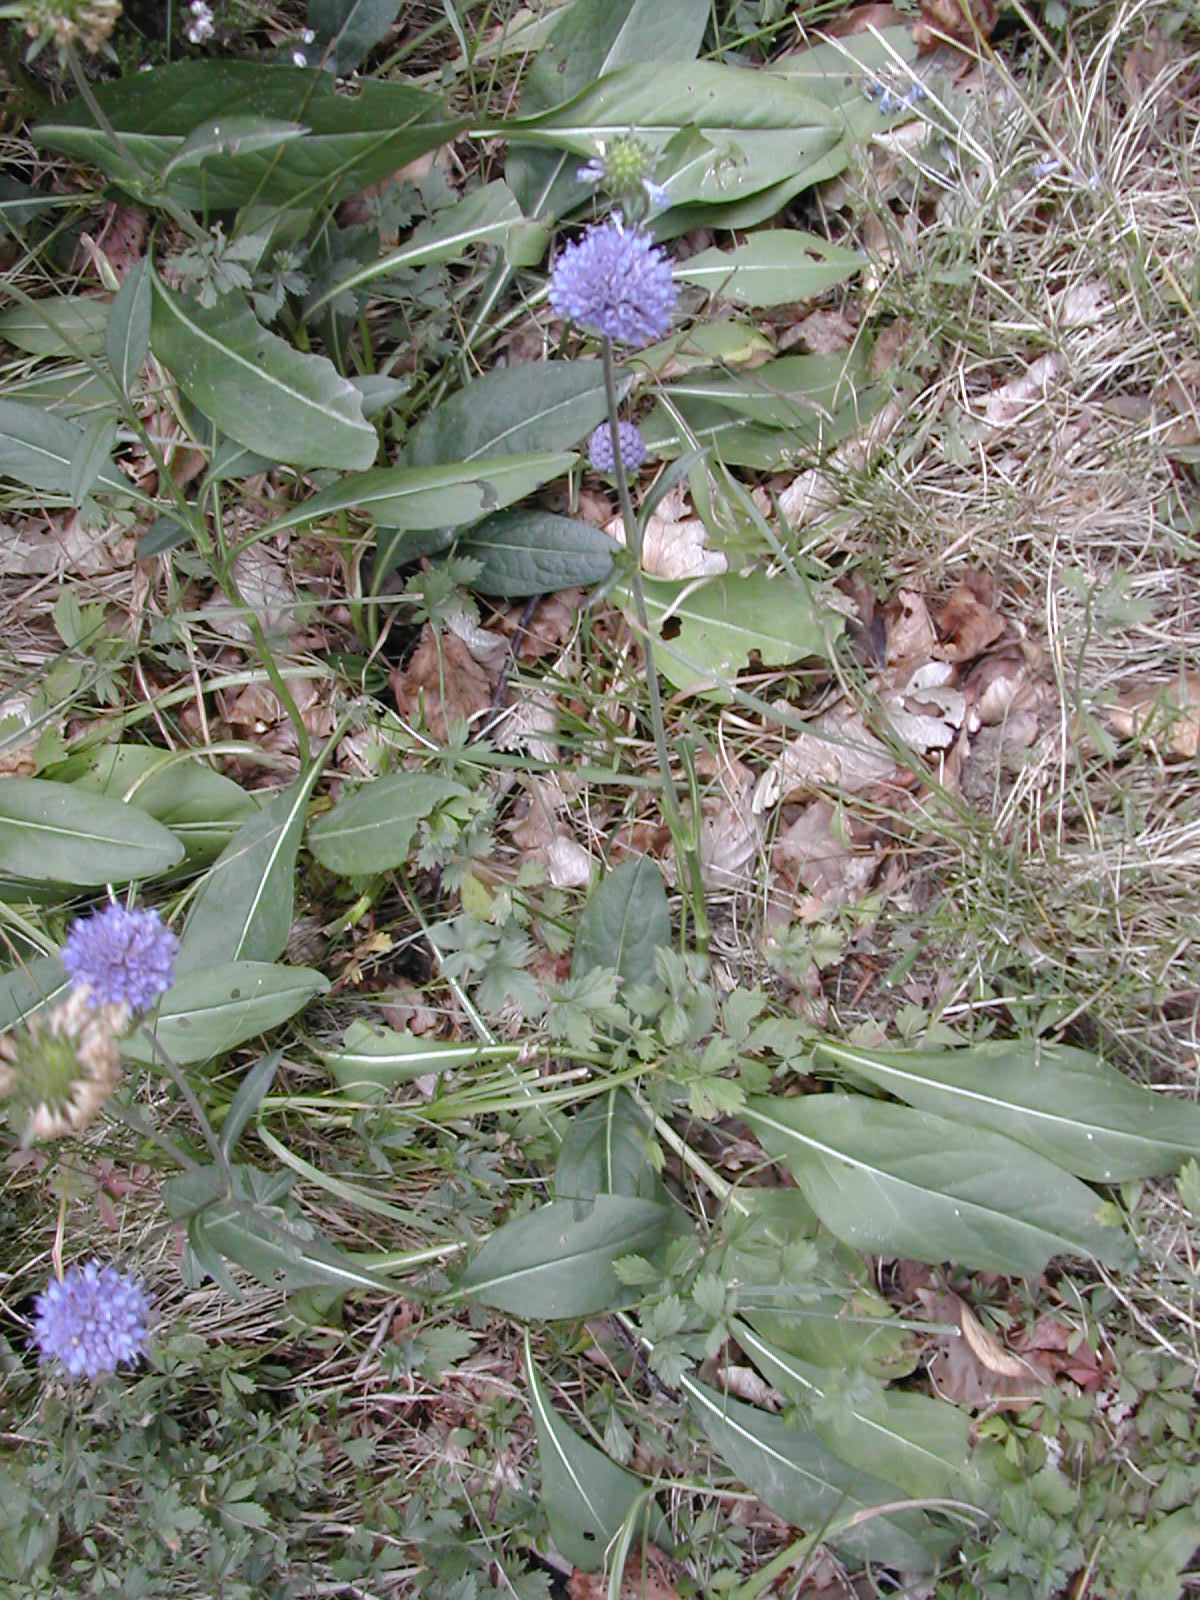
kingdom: Plantae
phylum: Tracheophyta
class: Magnoliopsida
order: Dipsacales
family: Caprifoliaceae
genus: Succisa
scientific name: Succisa pratensis
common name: Devil's-bit
